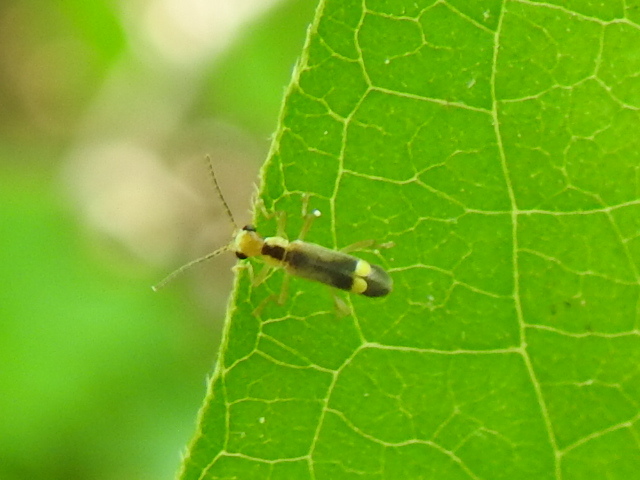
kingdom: Animalia
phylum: Arthropoda
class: Insecta
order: Coleoptera
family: Cantharidae
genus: Malthinus
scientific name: Malthinus occipitalis
